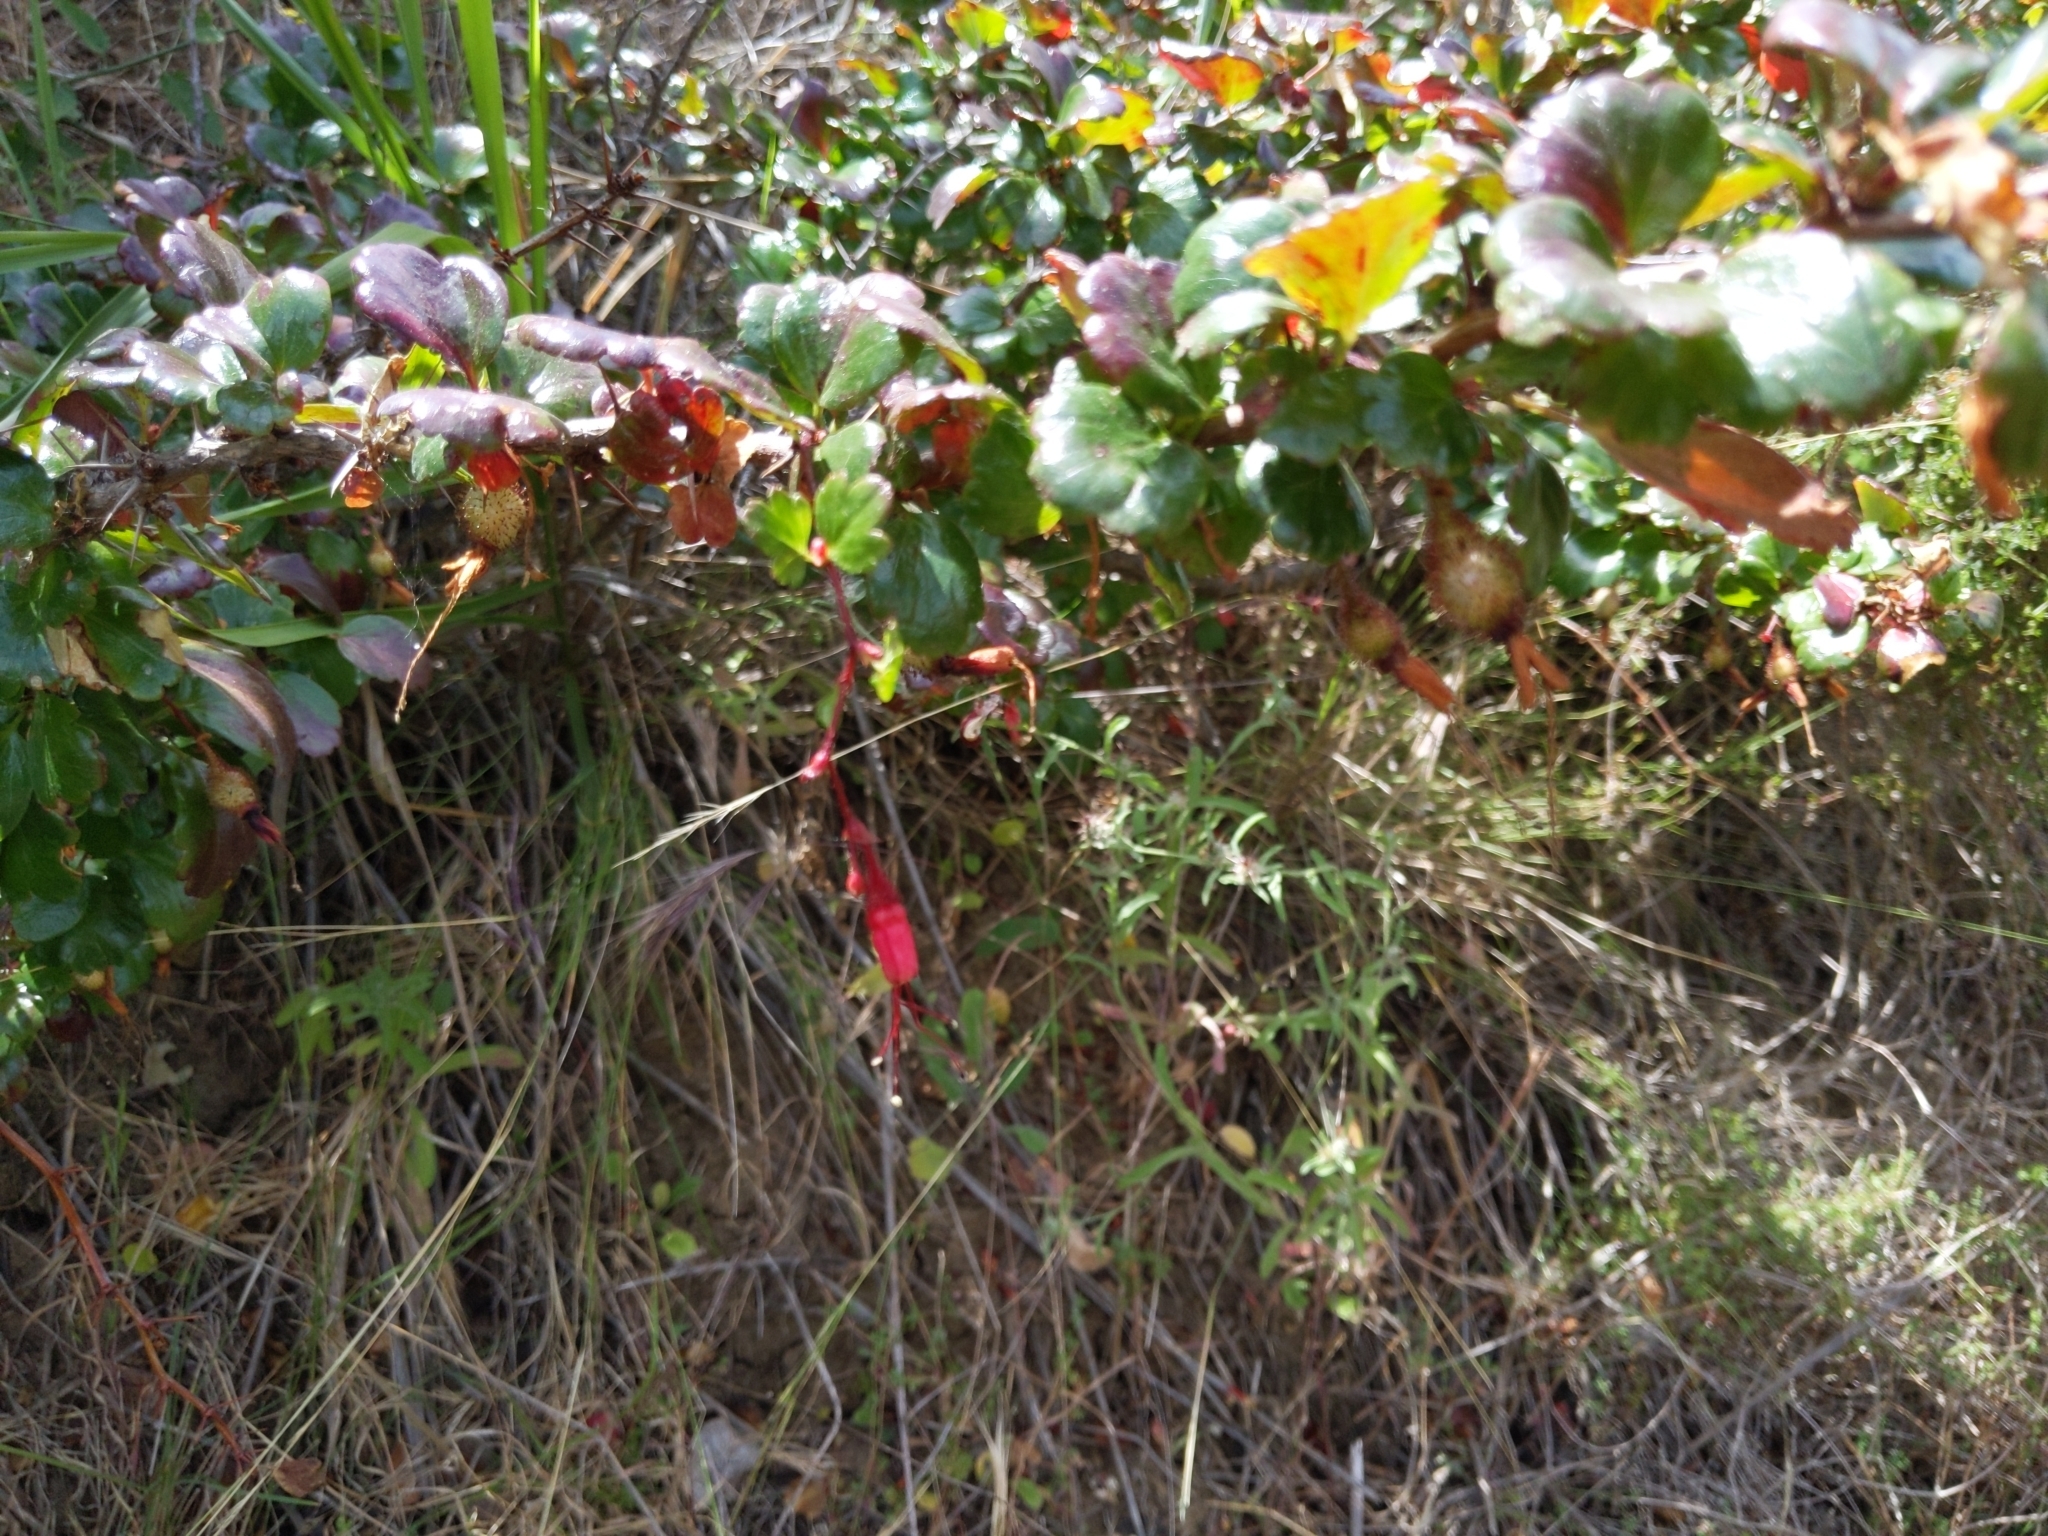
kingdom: Plantae
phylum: Tracheophyta
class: Magnoliopsida
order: Saxifragales
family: Grossulariaceae
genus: Ribes
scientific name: Ribes speciosum
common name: Fuchsia-flower gooseberry
